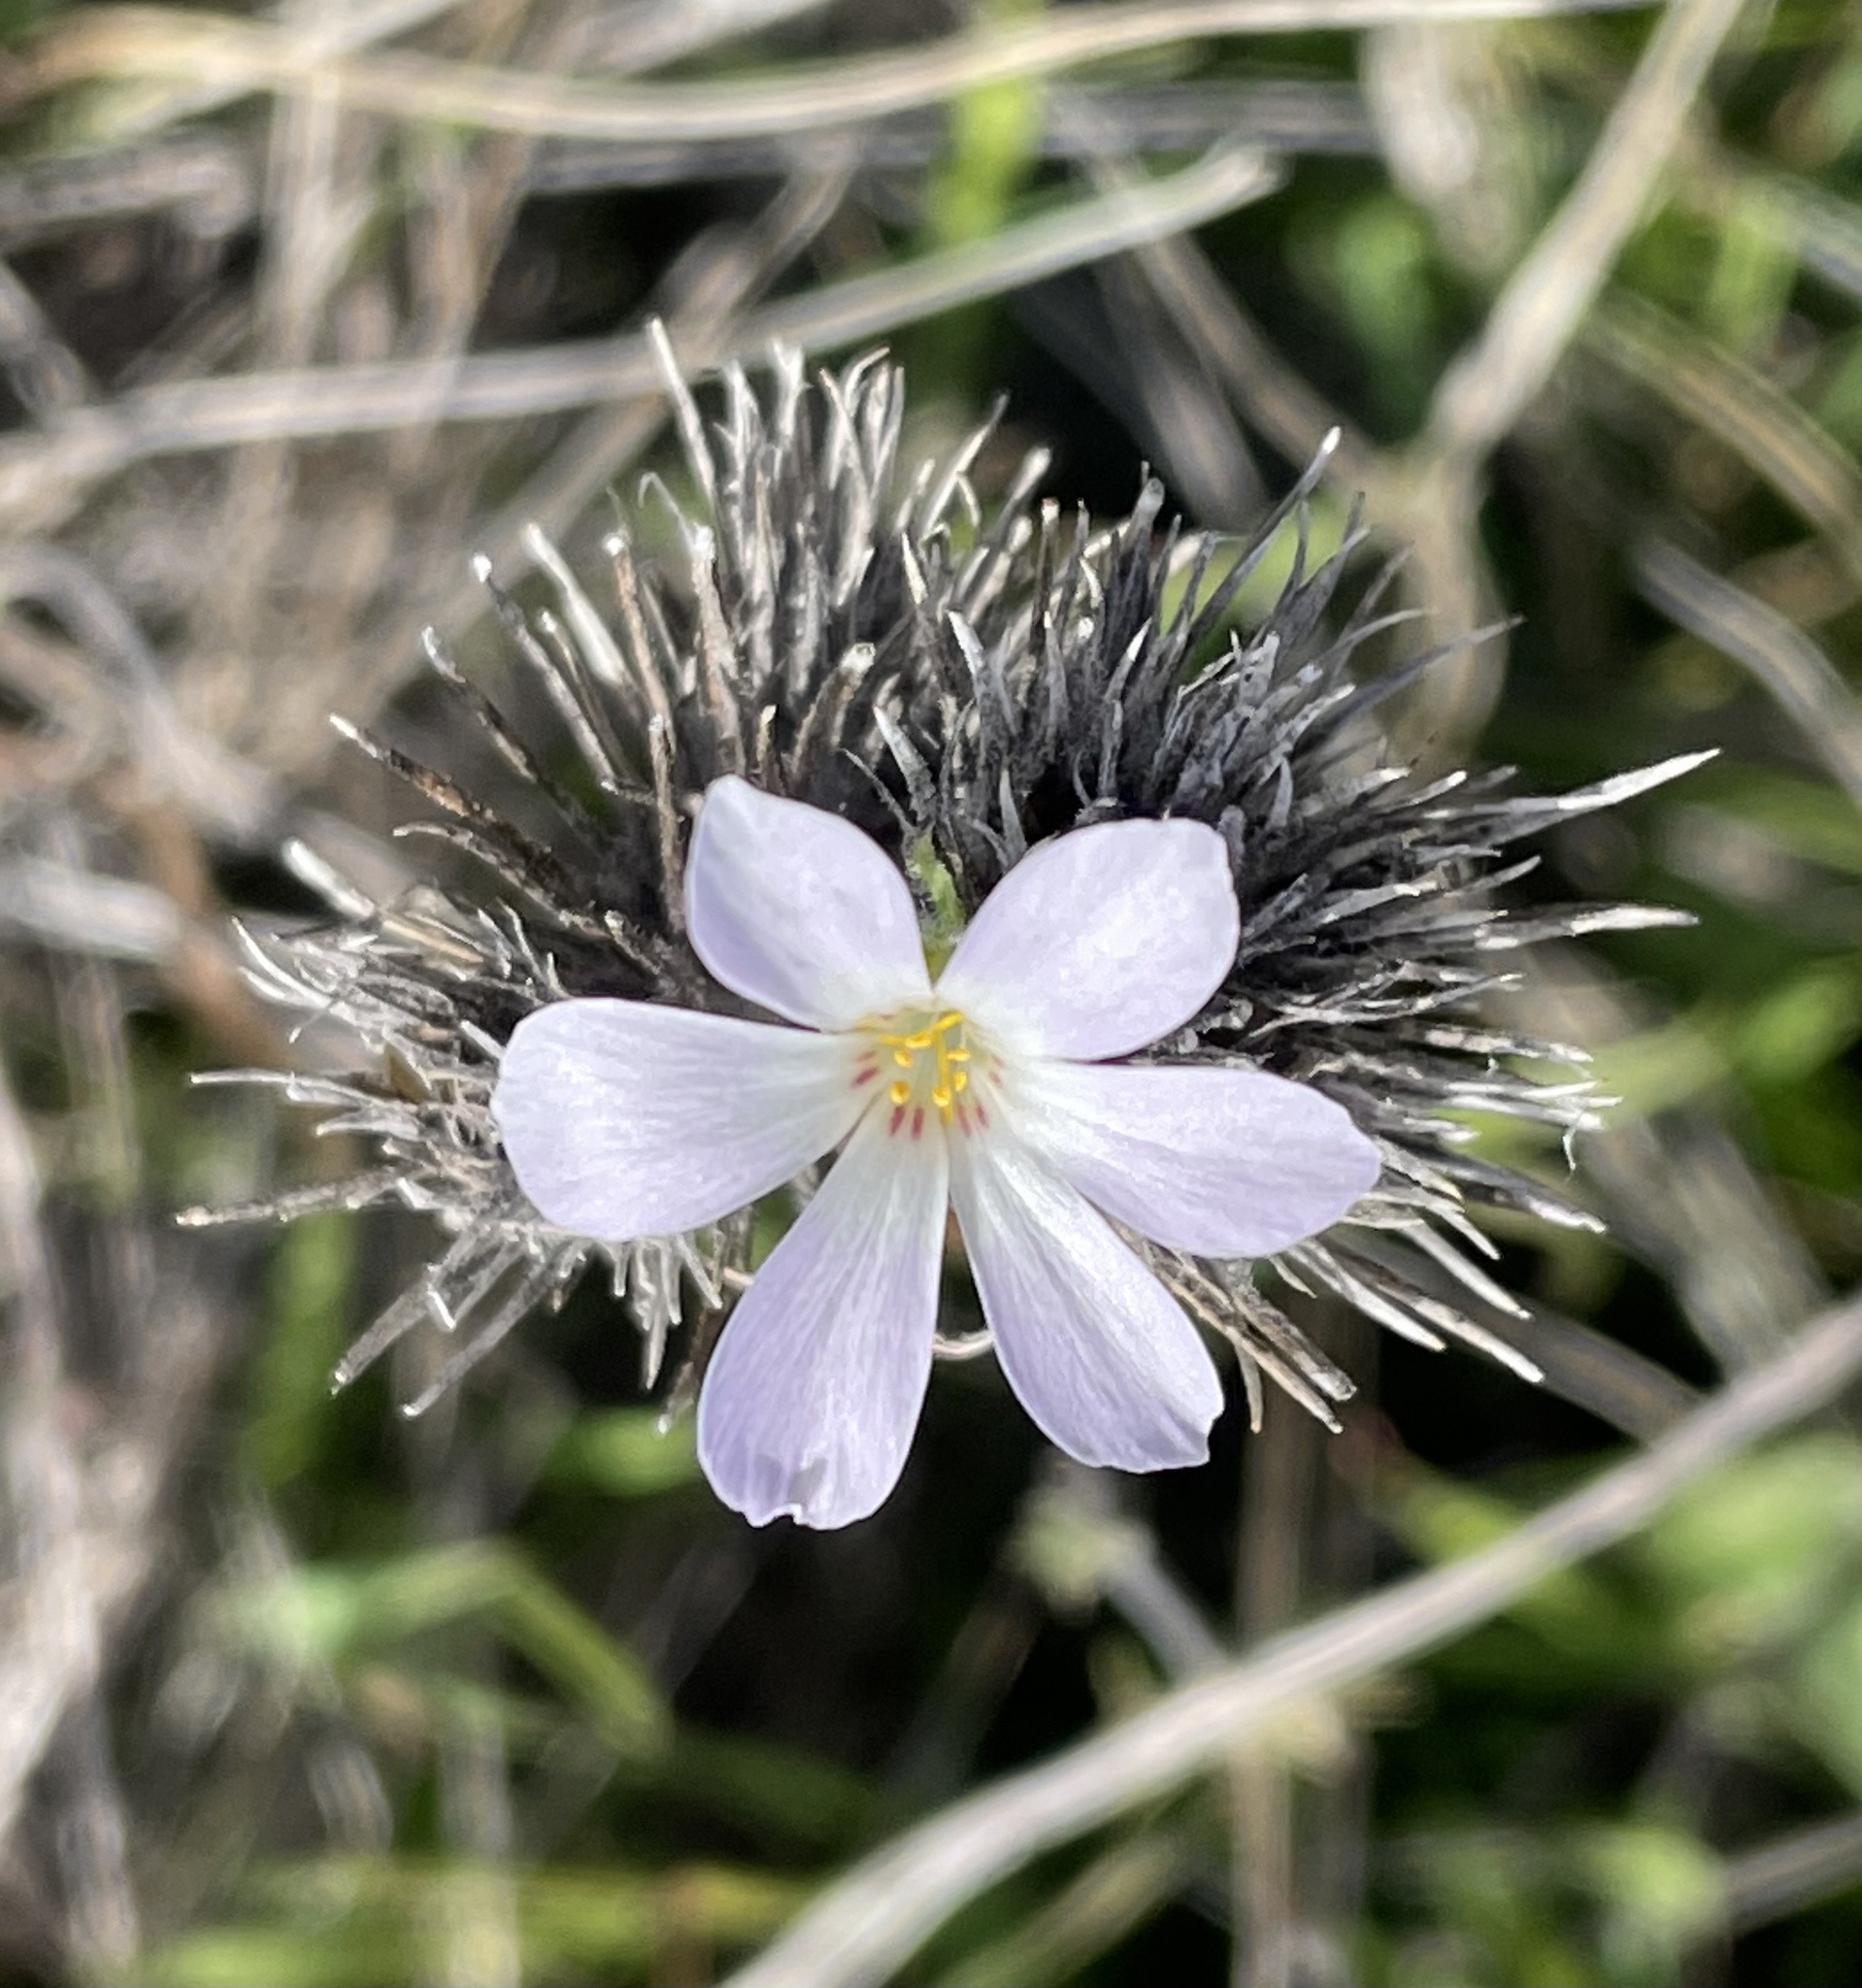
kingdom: Plantae
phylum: Tracheophyta
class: Magnoliopsida
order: Ericales
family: Polemoniaceae
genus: Leptosiphon
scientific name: Leptosiphon grandiflorus
